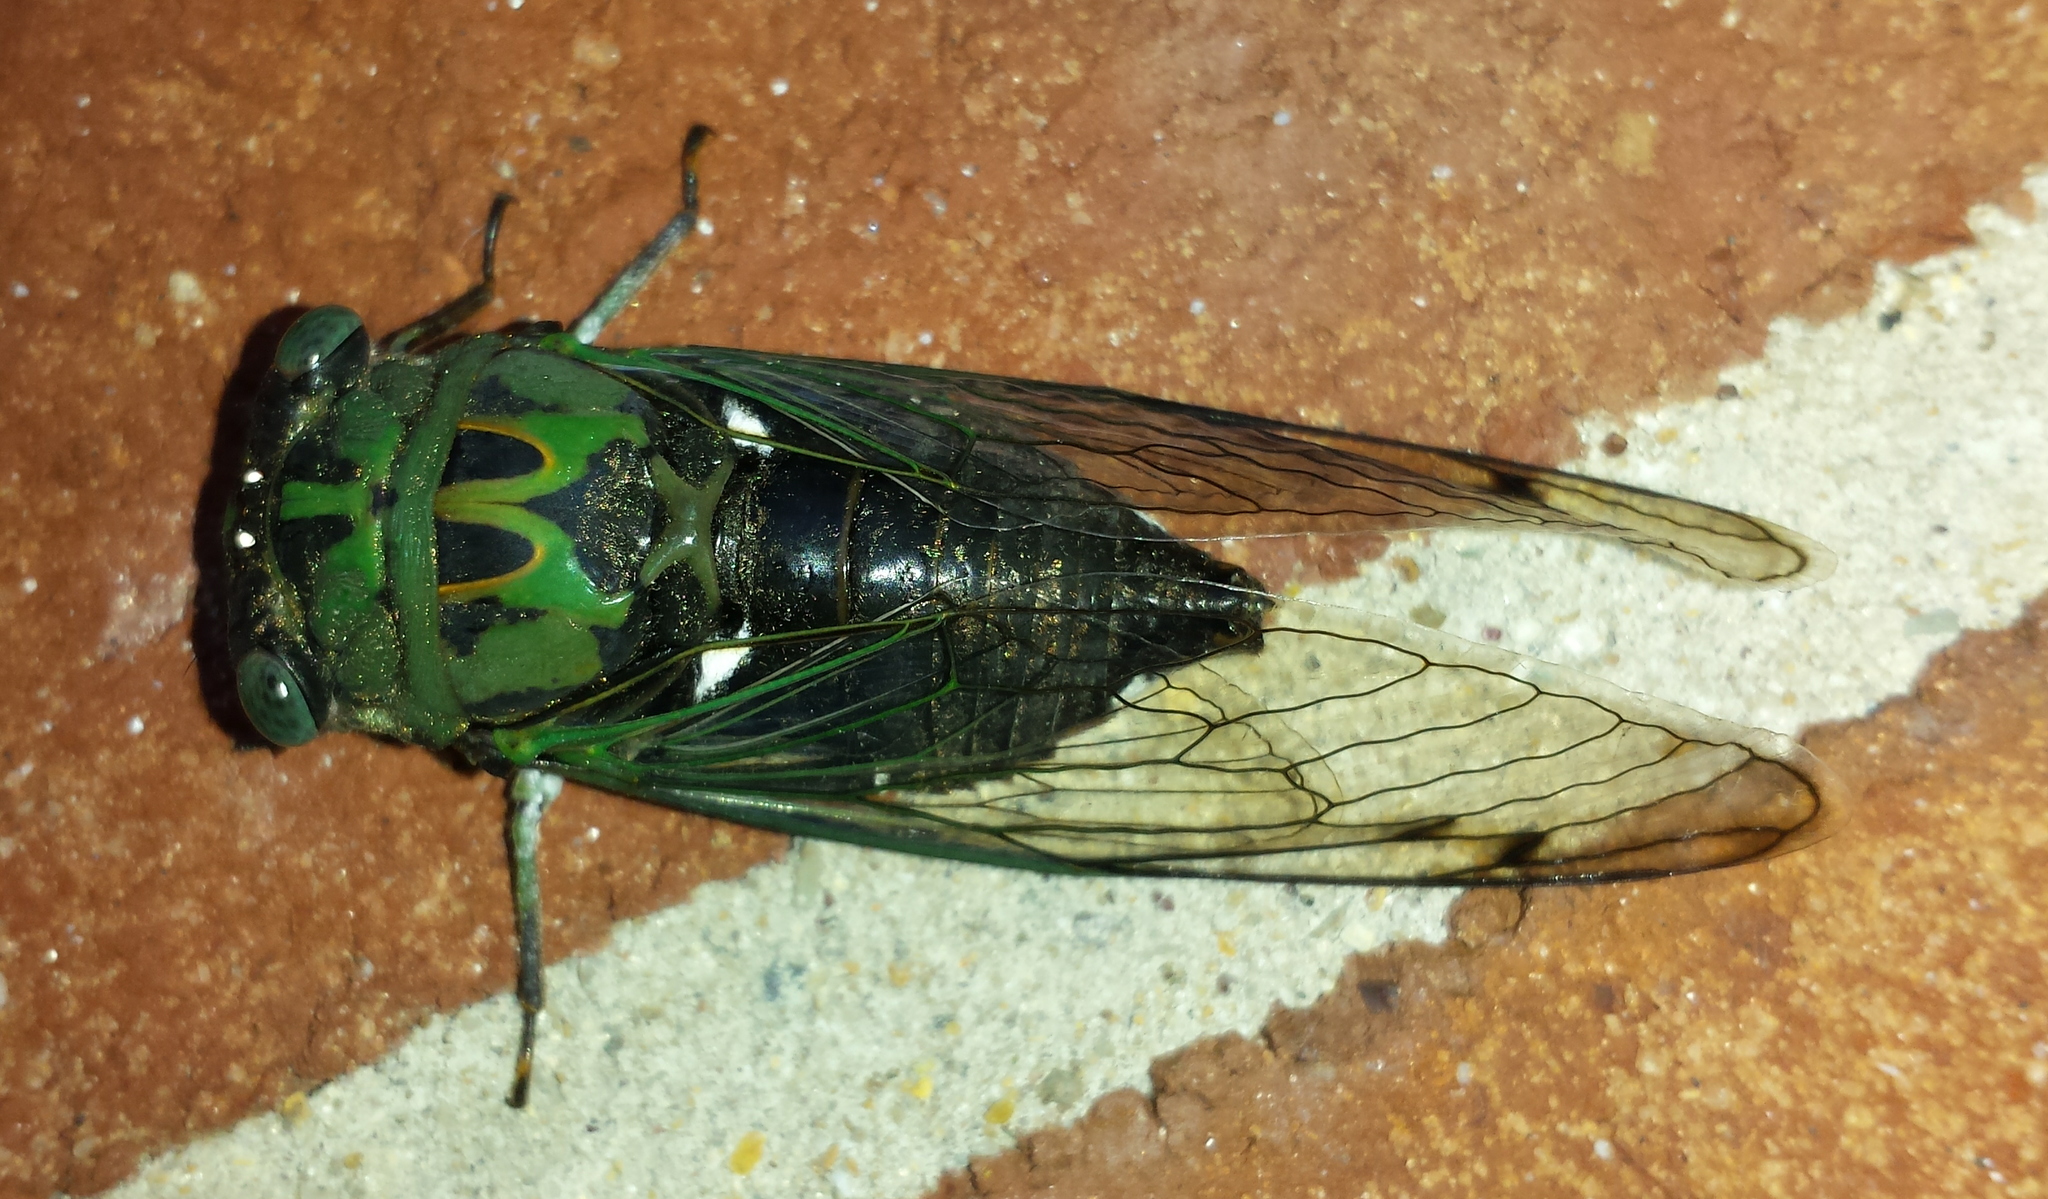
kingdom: Animalia
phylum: Arthropoda
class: Insecta
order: Hemiptera
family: Cicadidae
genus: Neotibicen
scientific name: Neotibicen pruinosus
